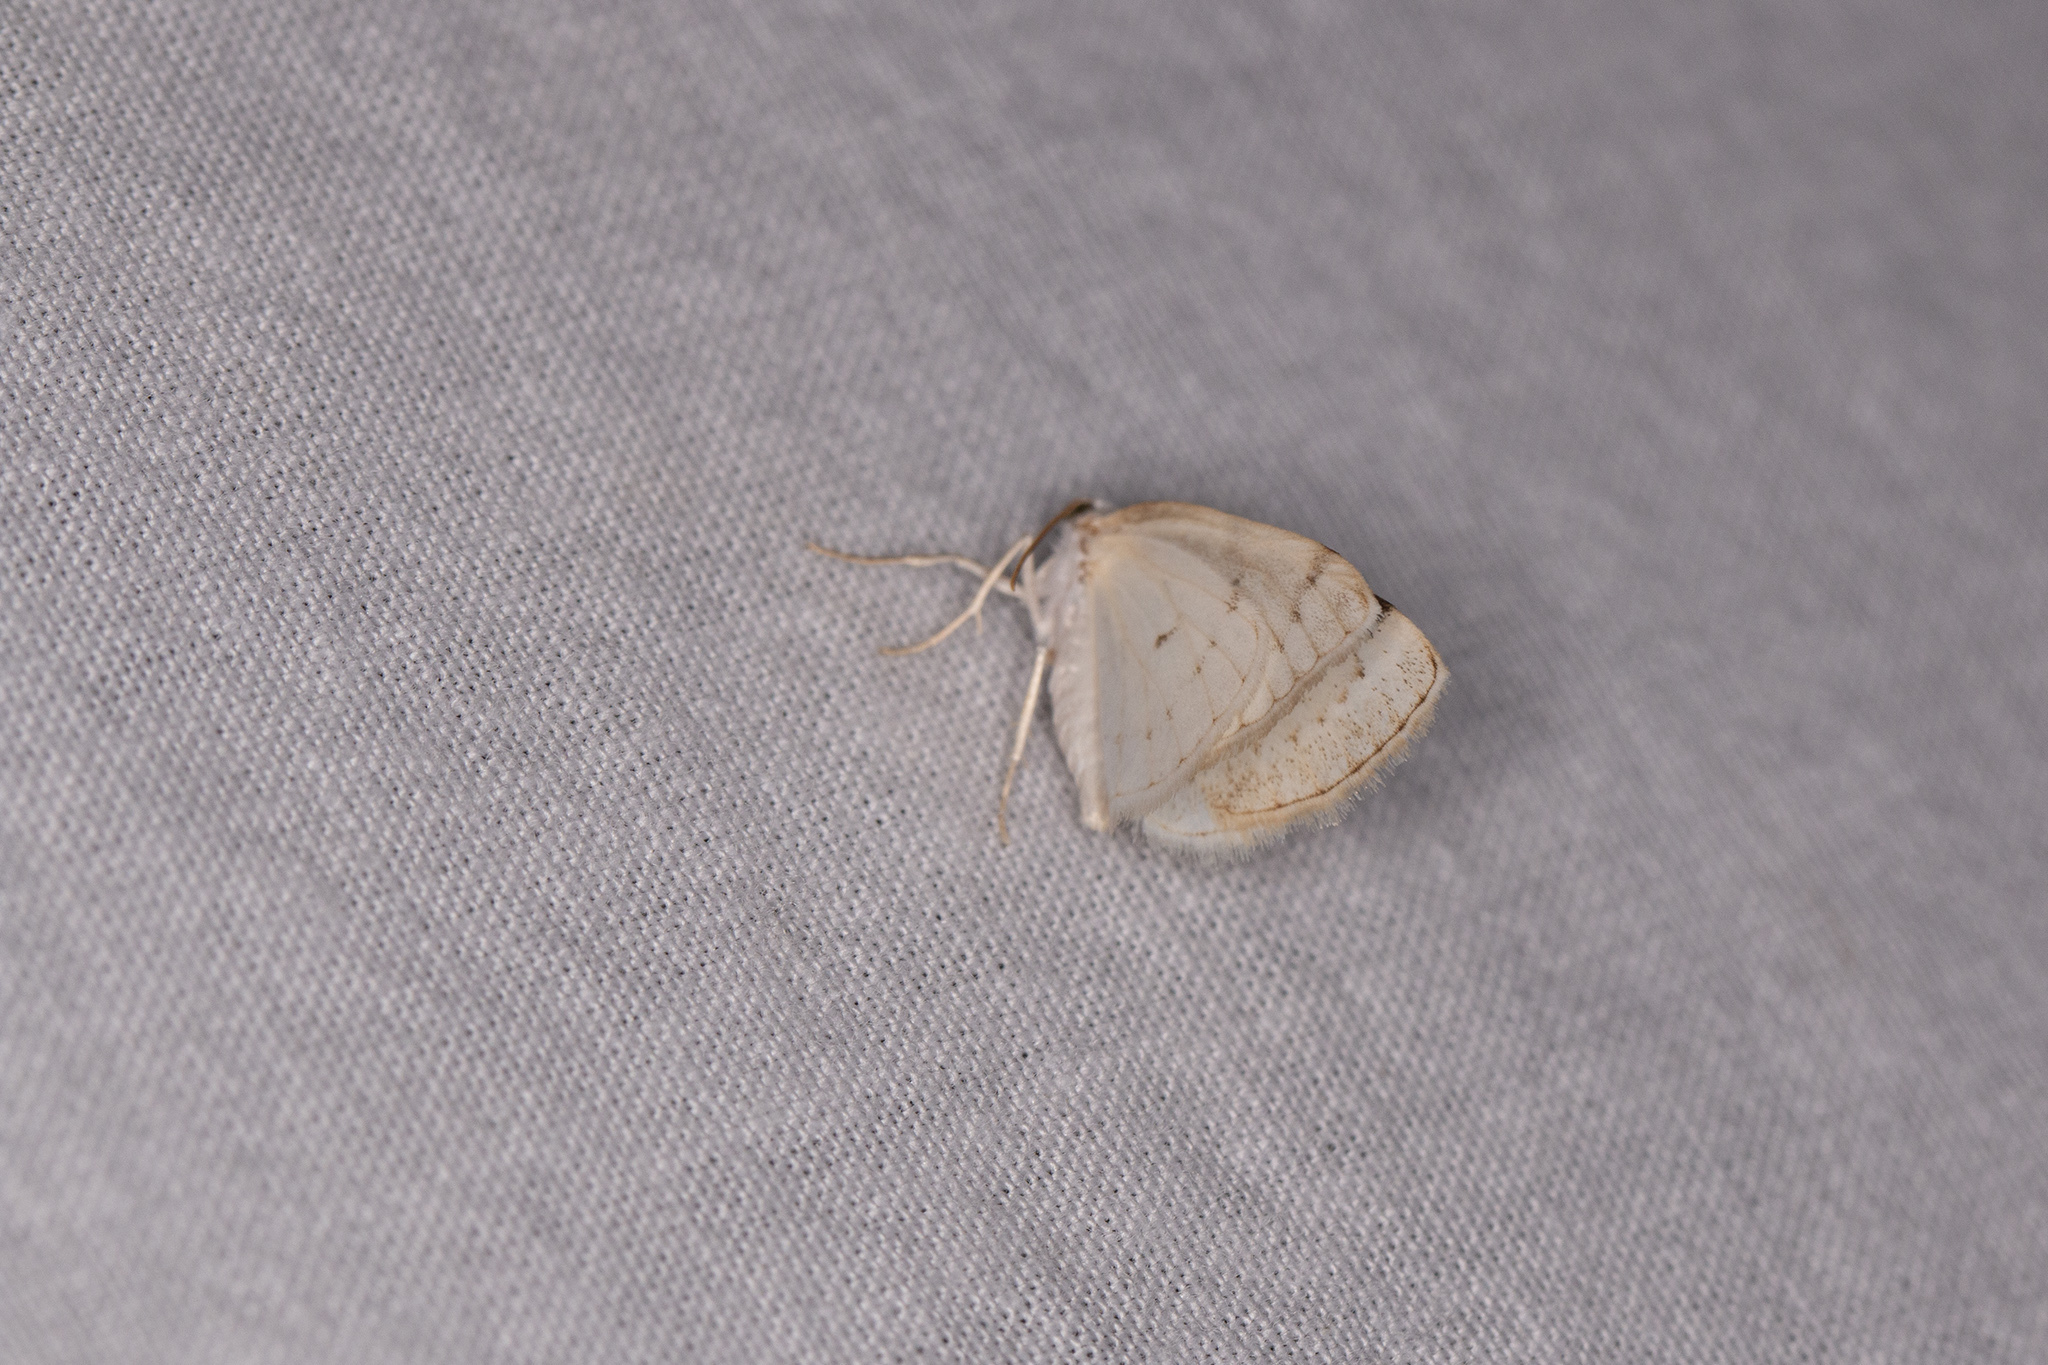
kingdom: Animalia
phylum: Arthropoda
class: Insecta
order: Lepidoptera
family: Geometridae
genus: Lomographa
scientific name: Lomographa bimaculata
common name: White-pinion spotted
